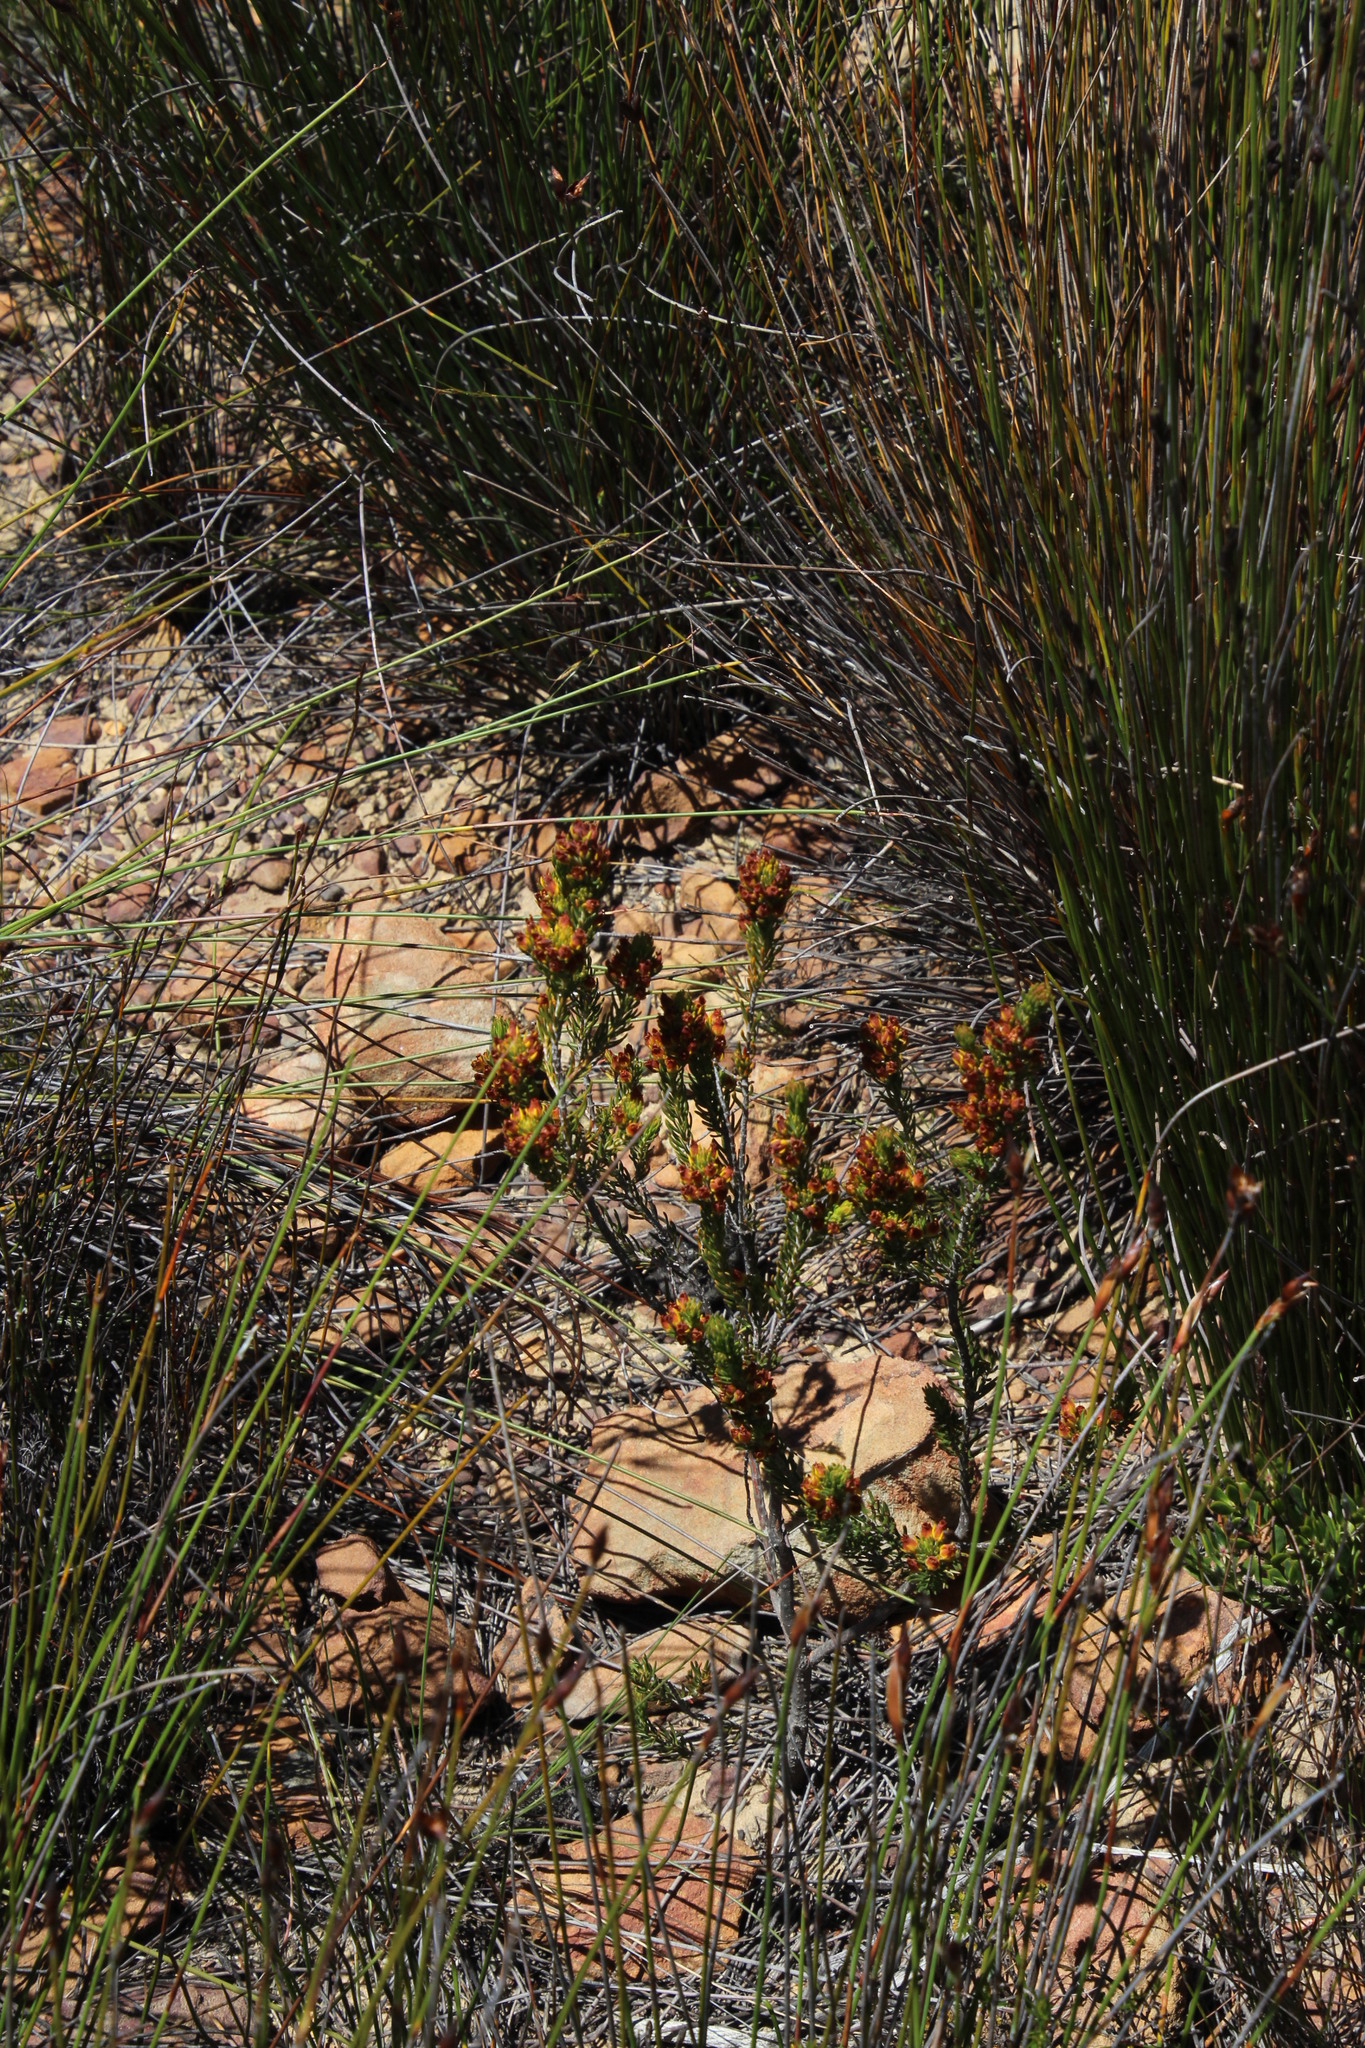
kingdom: Plantae
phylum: Tracheophyta
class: Magnoliopsida
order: Ericales
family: Ericaceae
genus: Erica
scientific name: Erica parilis
